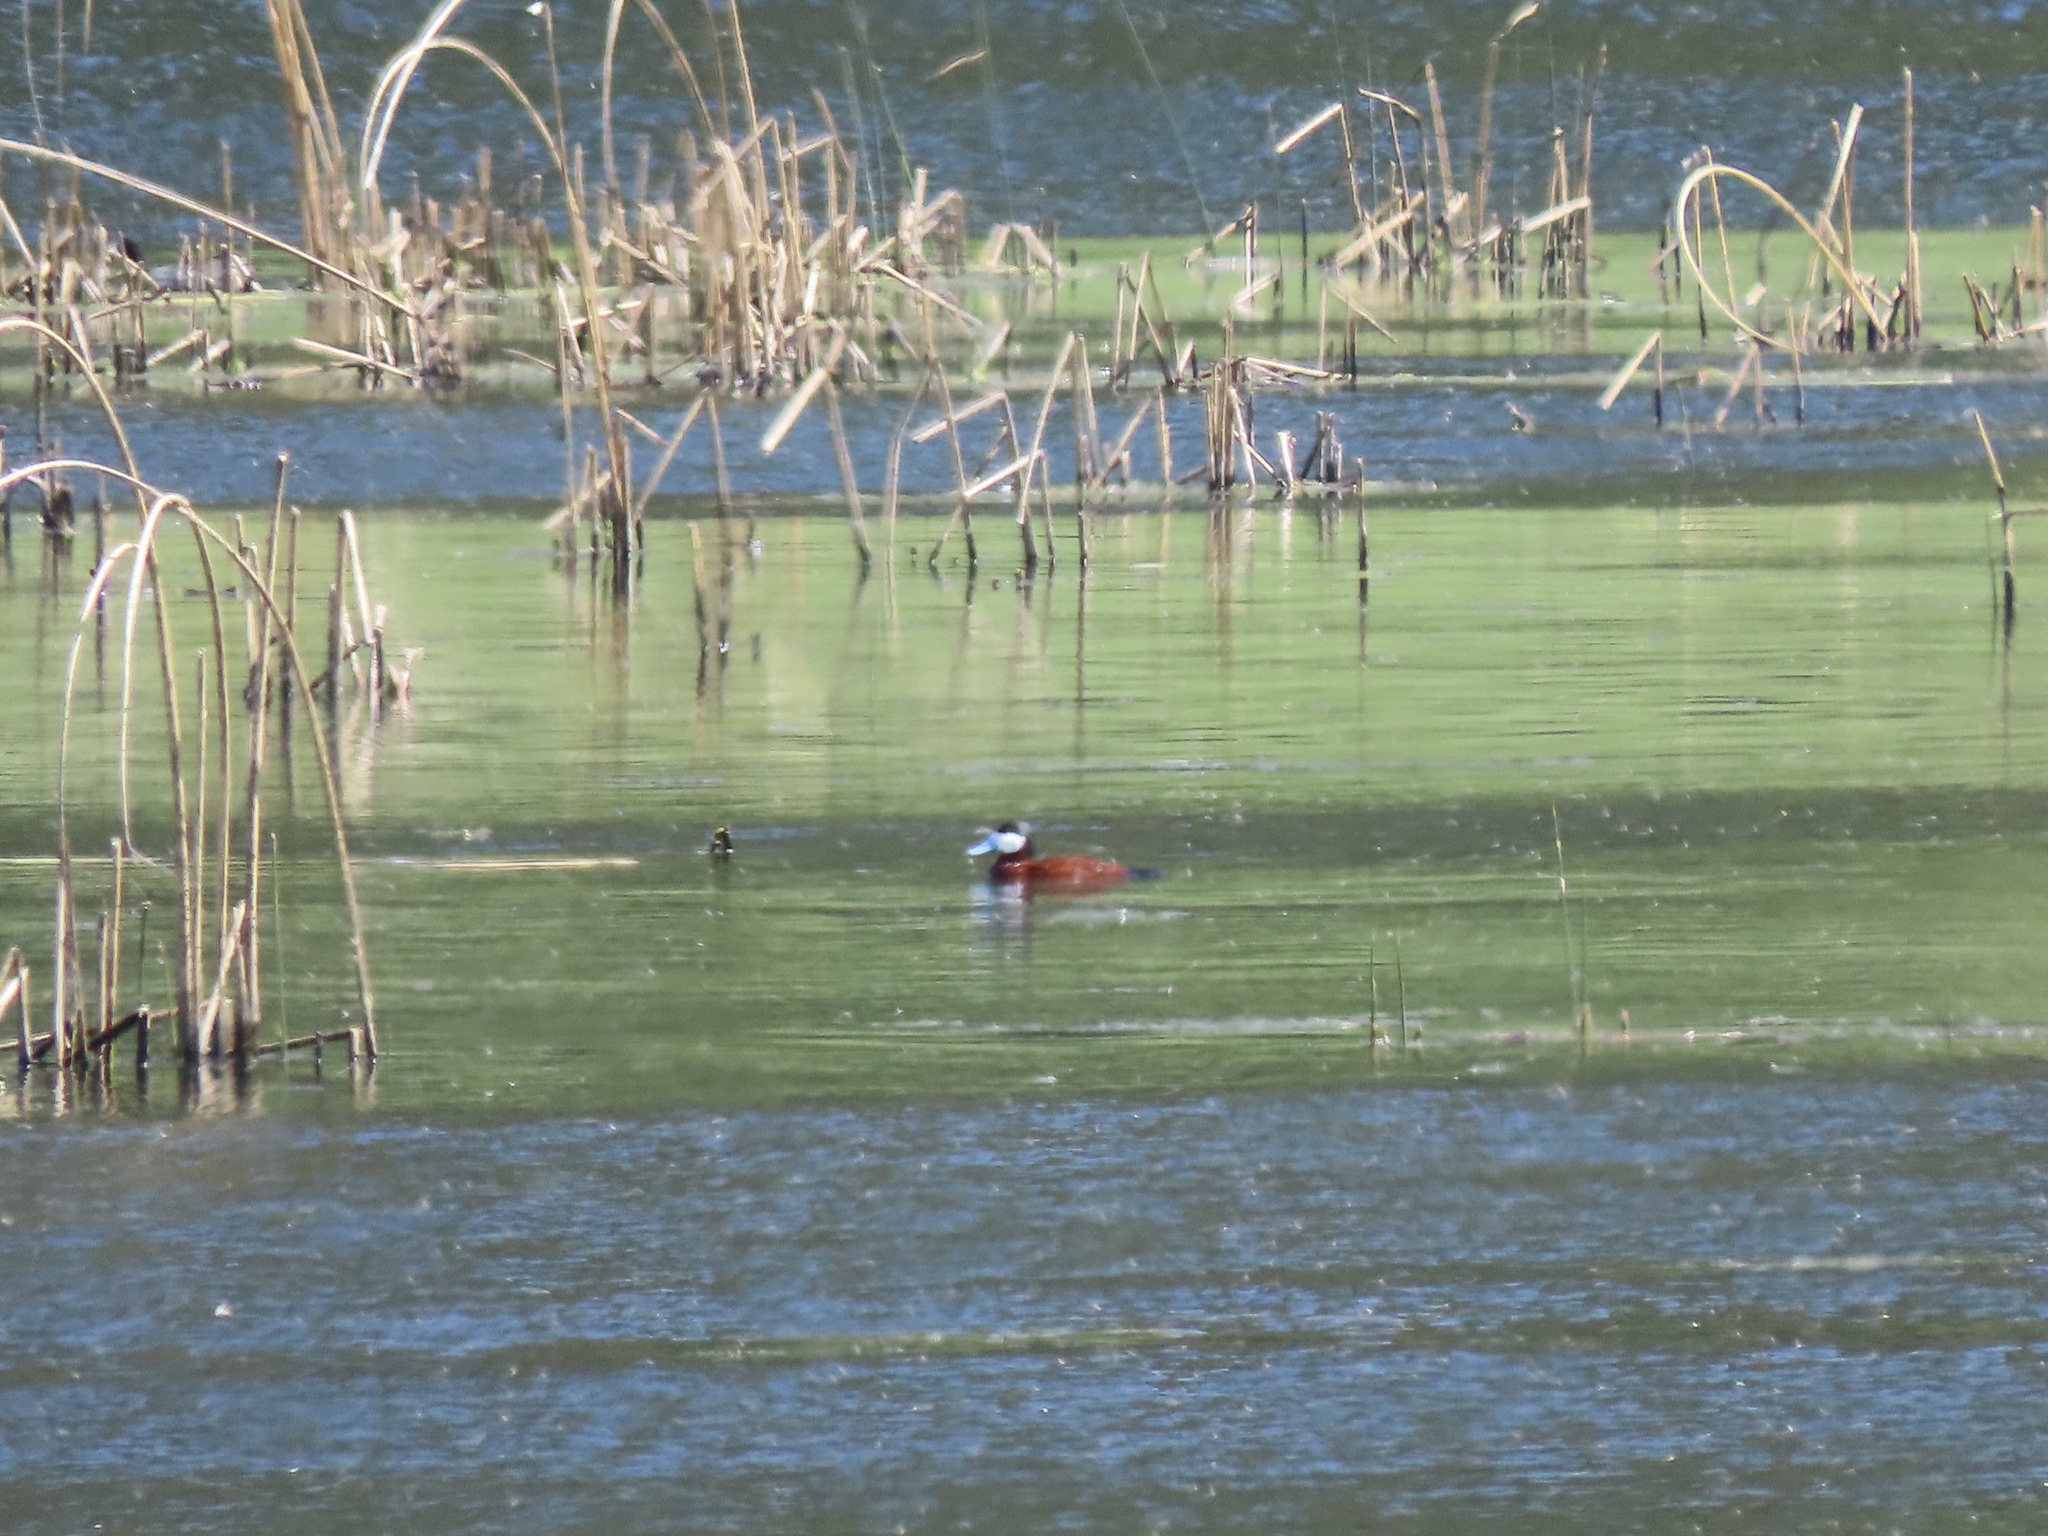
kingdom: Animalia
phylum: Chordata
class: Aves
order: Anseriformes
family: Anatidae
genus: Oxyura
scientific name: Oxyura jamaicensis
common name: Ruddy duck
